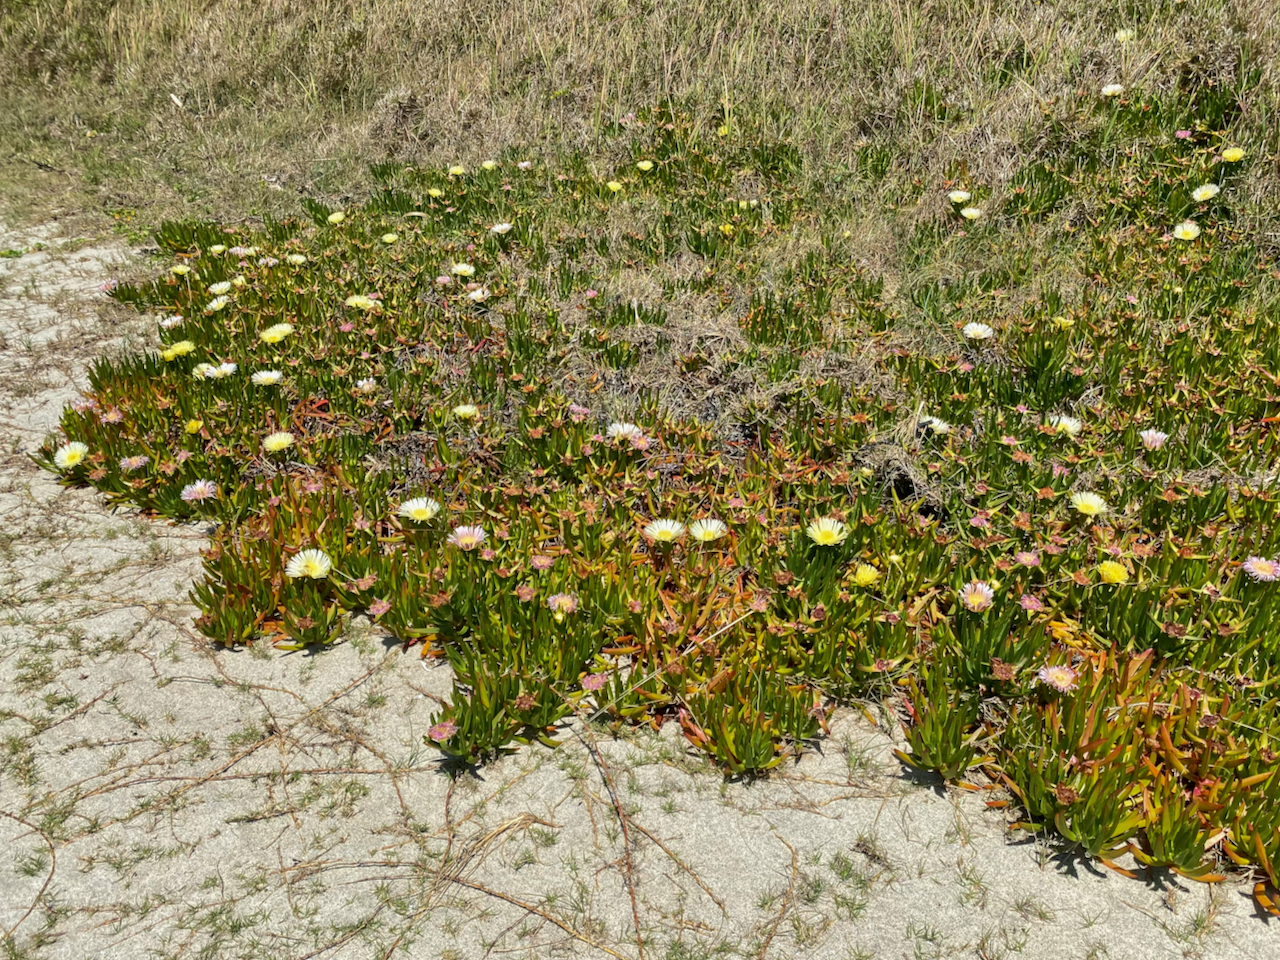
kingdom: Plantae
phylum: Tracheophyta
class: Magnoliopsida
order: Caryophyllales
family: Aizoaceae
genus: Carpobrotus
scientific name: Carpobrotus edulis
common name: Hottentot-fig
